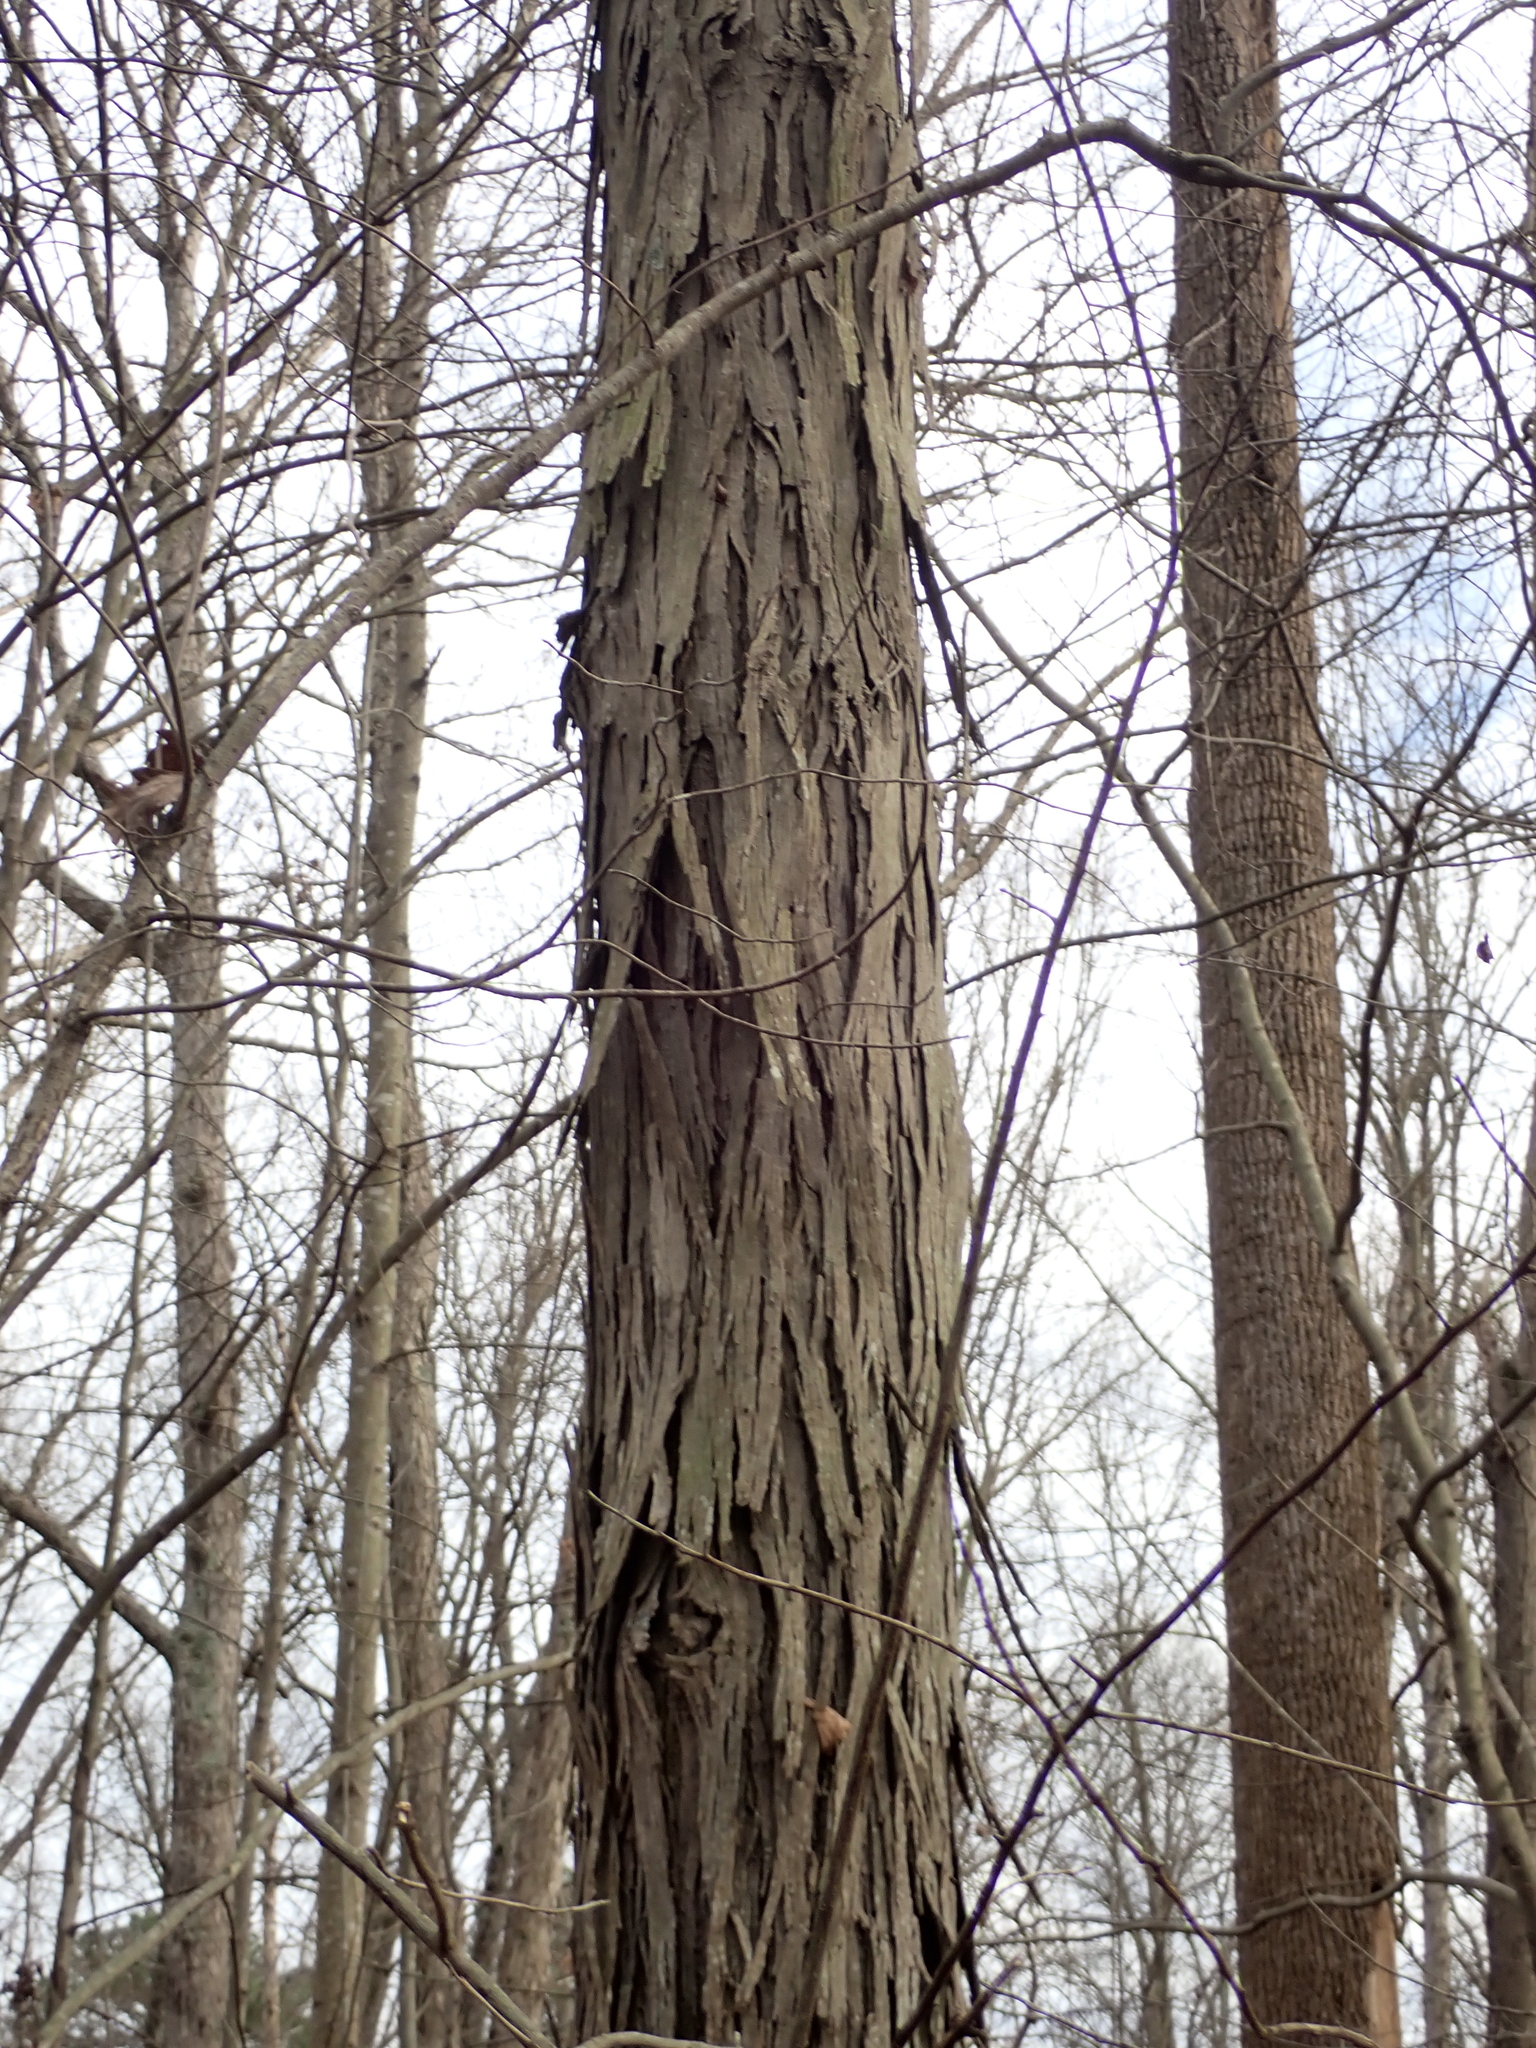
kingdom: Plantae
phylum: Tracheophyta
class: Magnoliopsida
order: Fagales
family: Juglandaceae
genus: Carya
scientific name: Carya ovata
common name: Shagbark hickory
